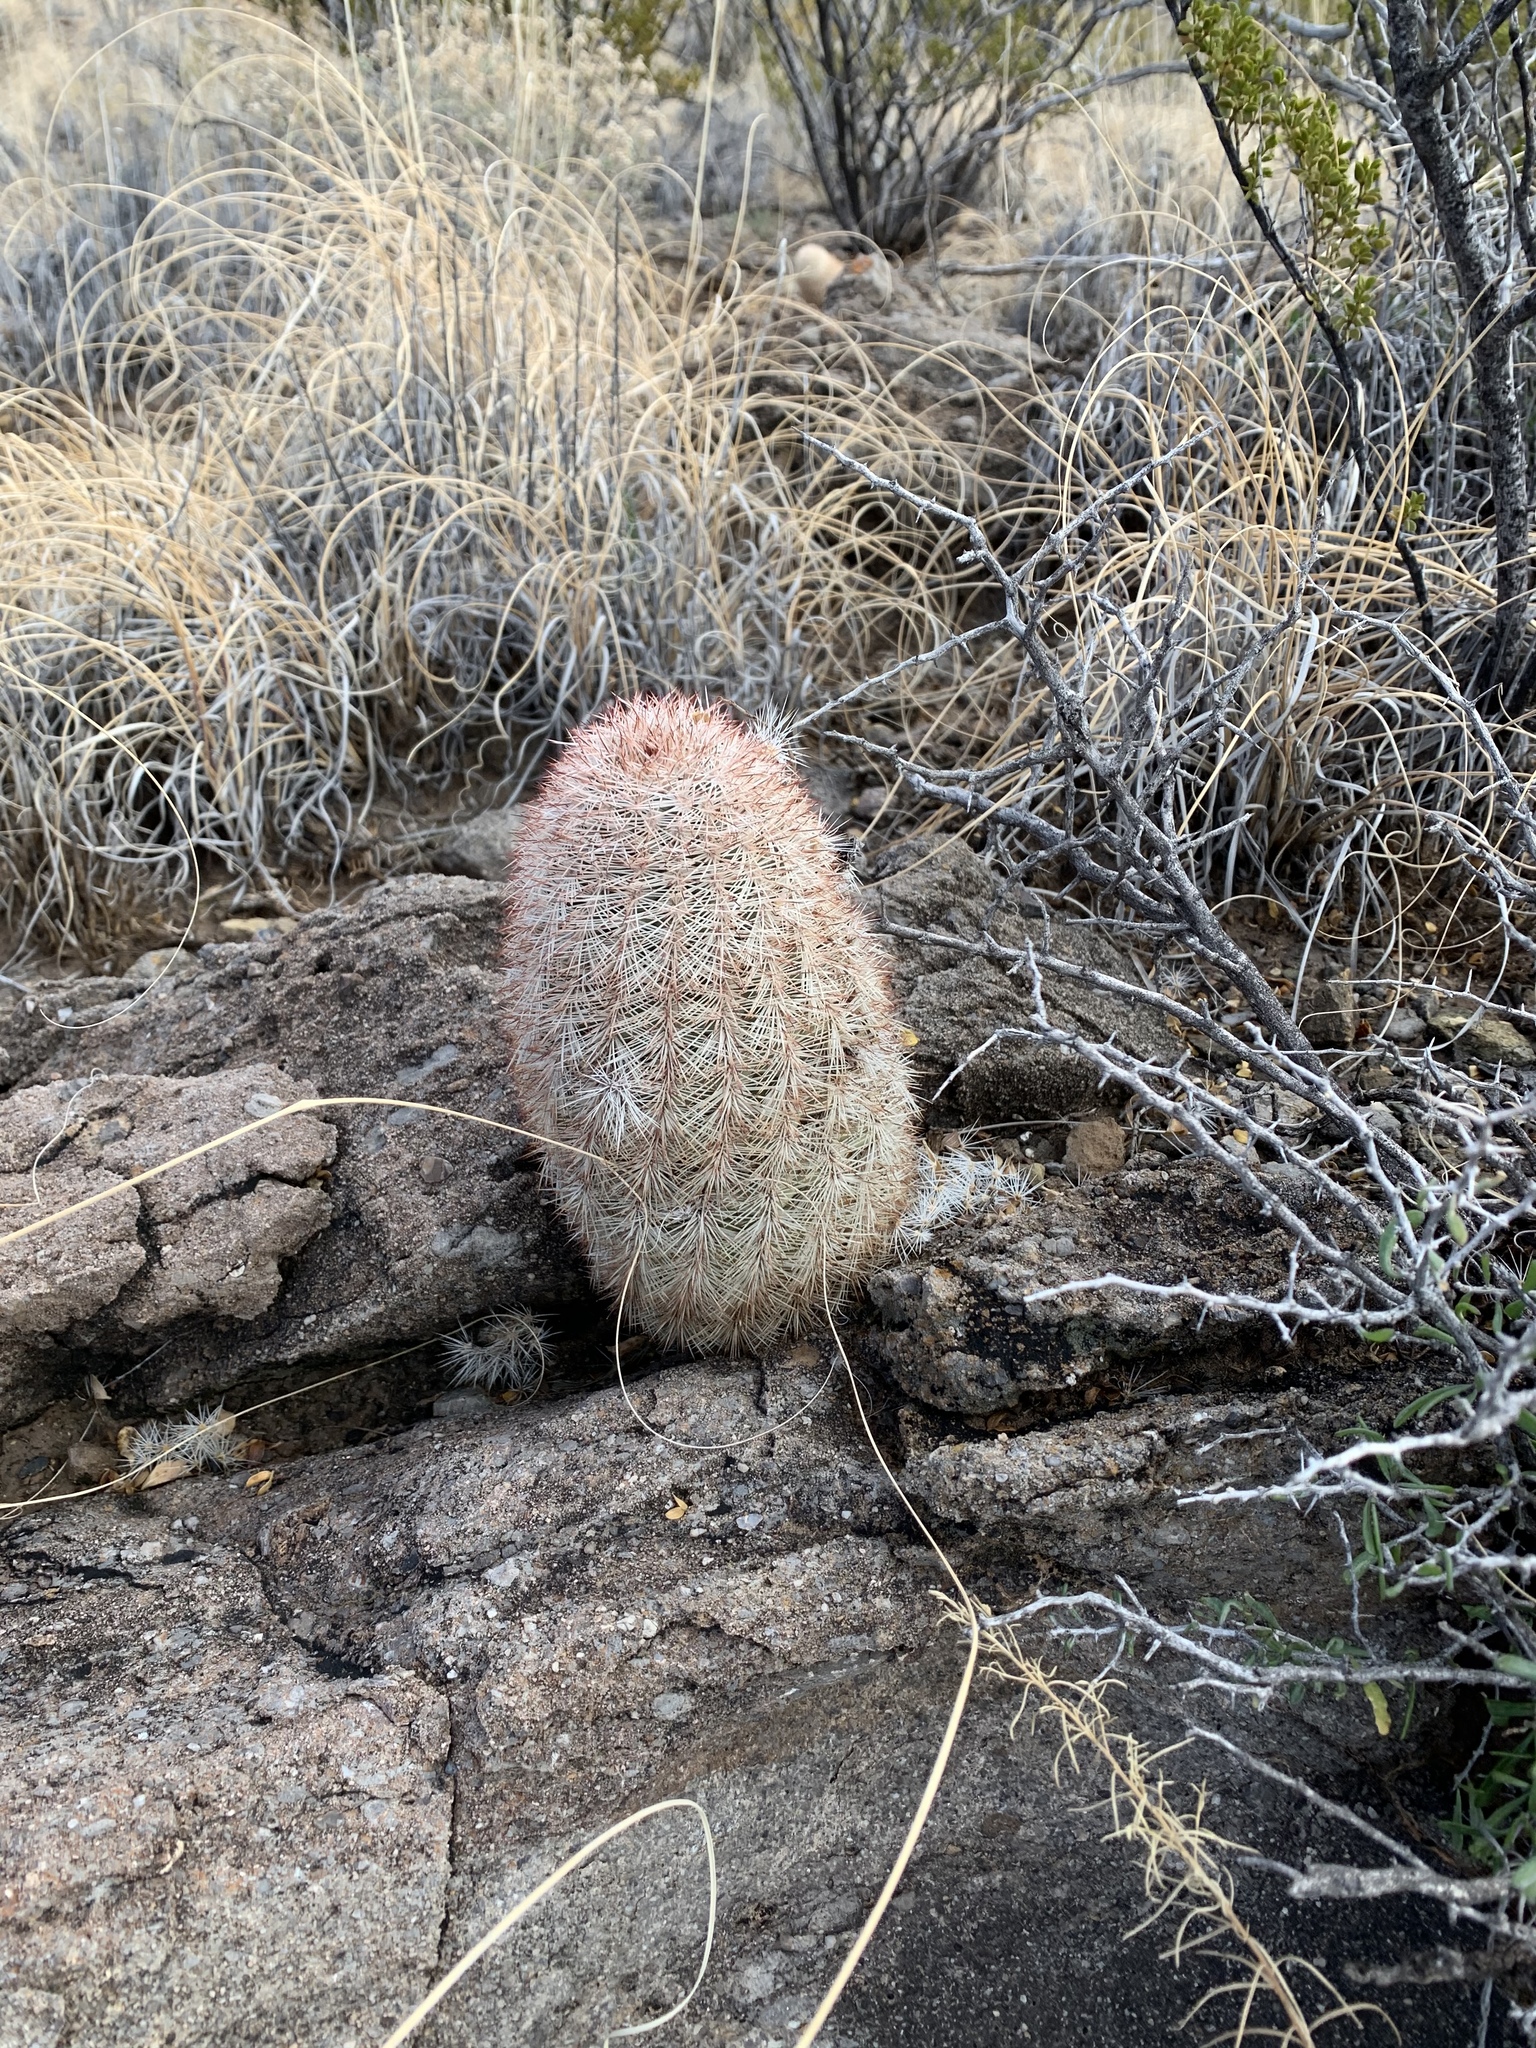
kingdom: Plantae
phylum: Tracheophyta
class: Magnoliopsida
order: Caryophyllales
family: Cactaceae
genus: Echinocereus
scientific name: Echinocereus dasyacanthus
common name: Spiny hedgehog cactus
